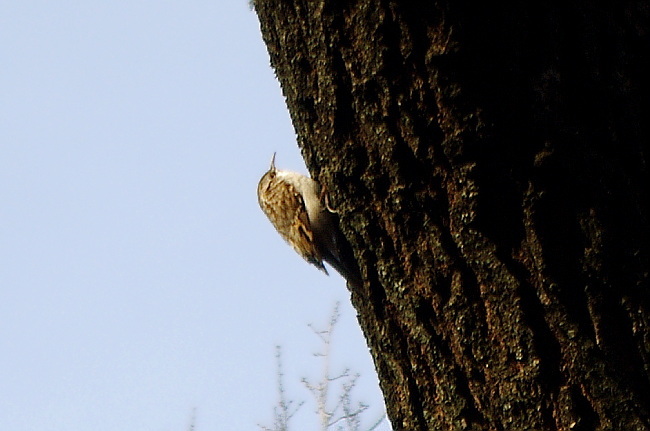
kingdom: Animalia
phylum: Chordata
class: Aves
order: Passeriformes
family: Certhiidae
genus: Certhia
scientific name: Certhia familiaris
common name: Eurasian treecreeper
